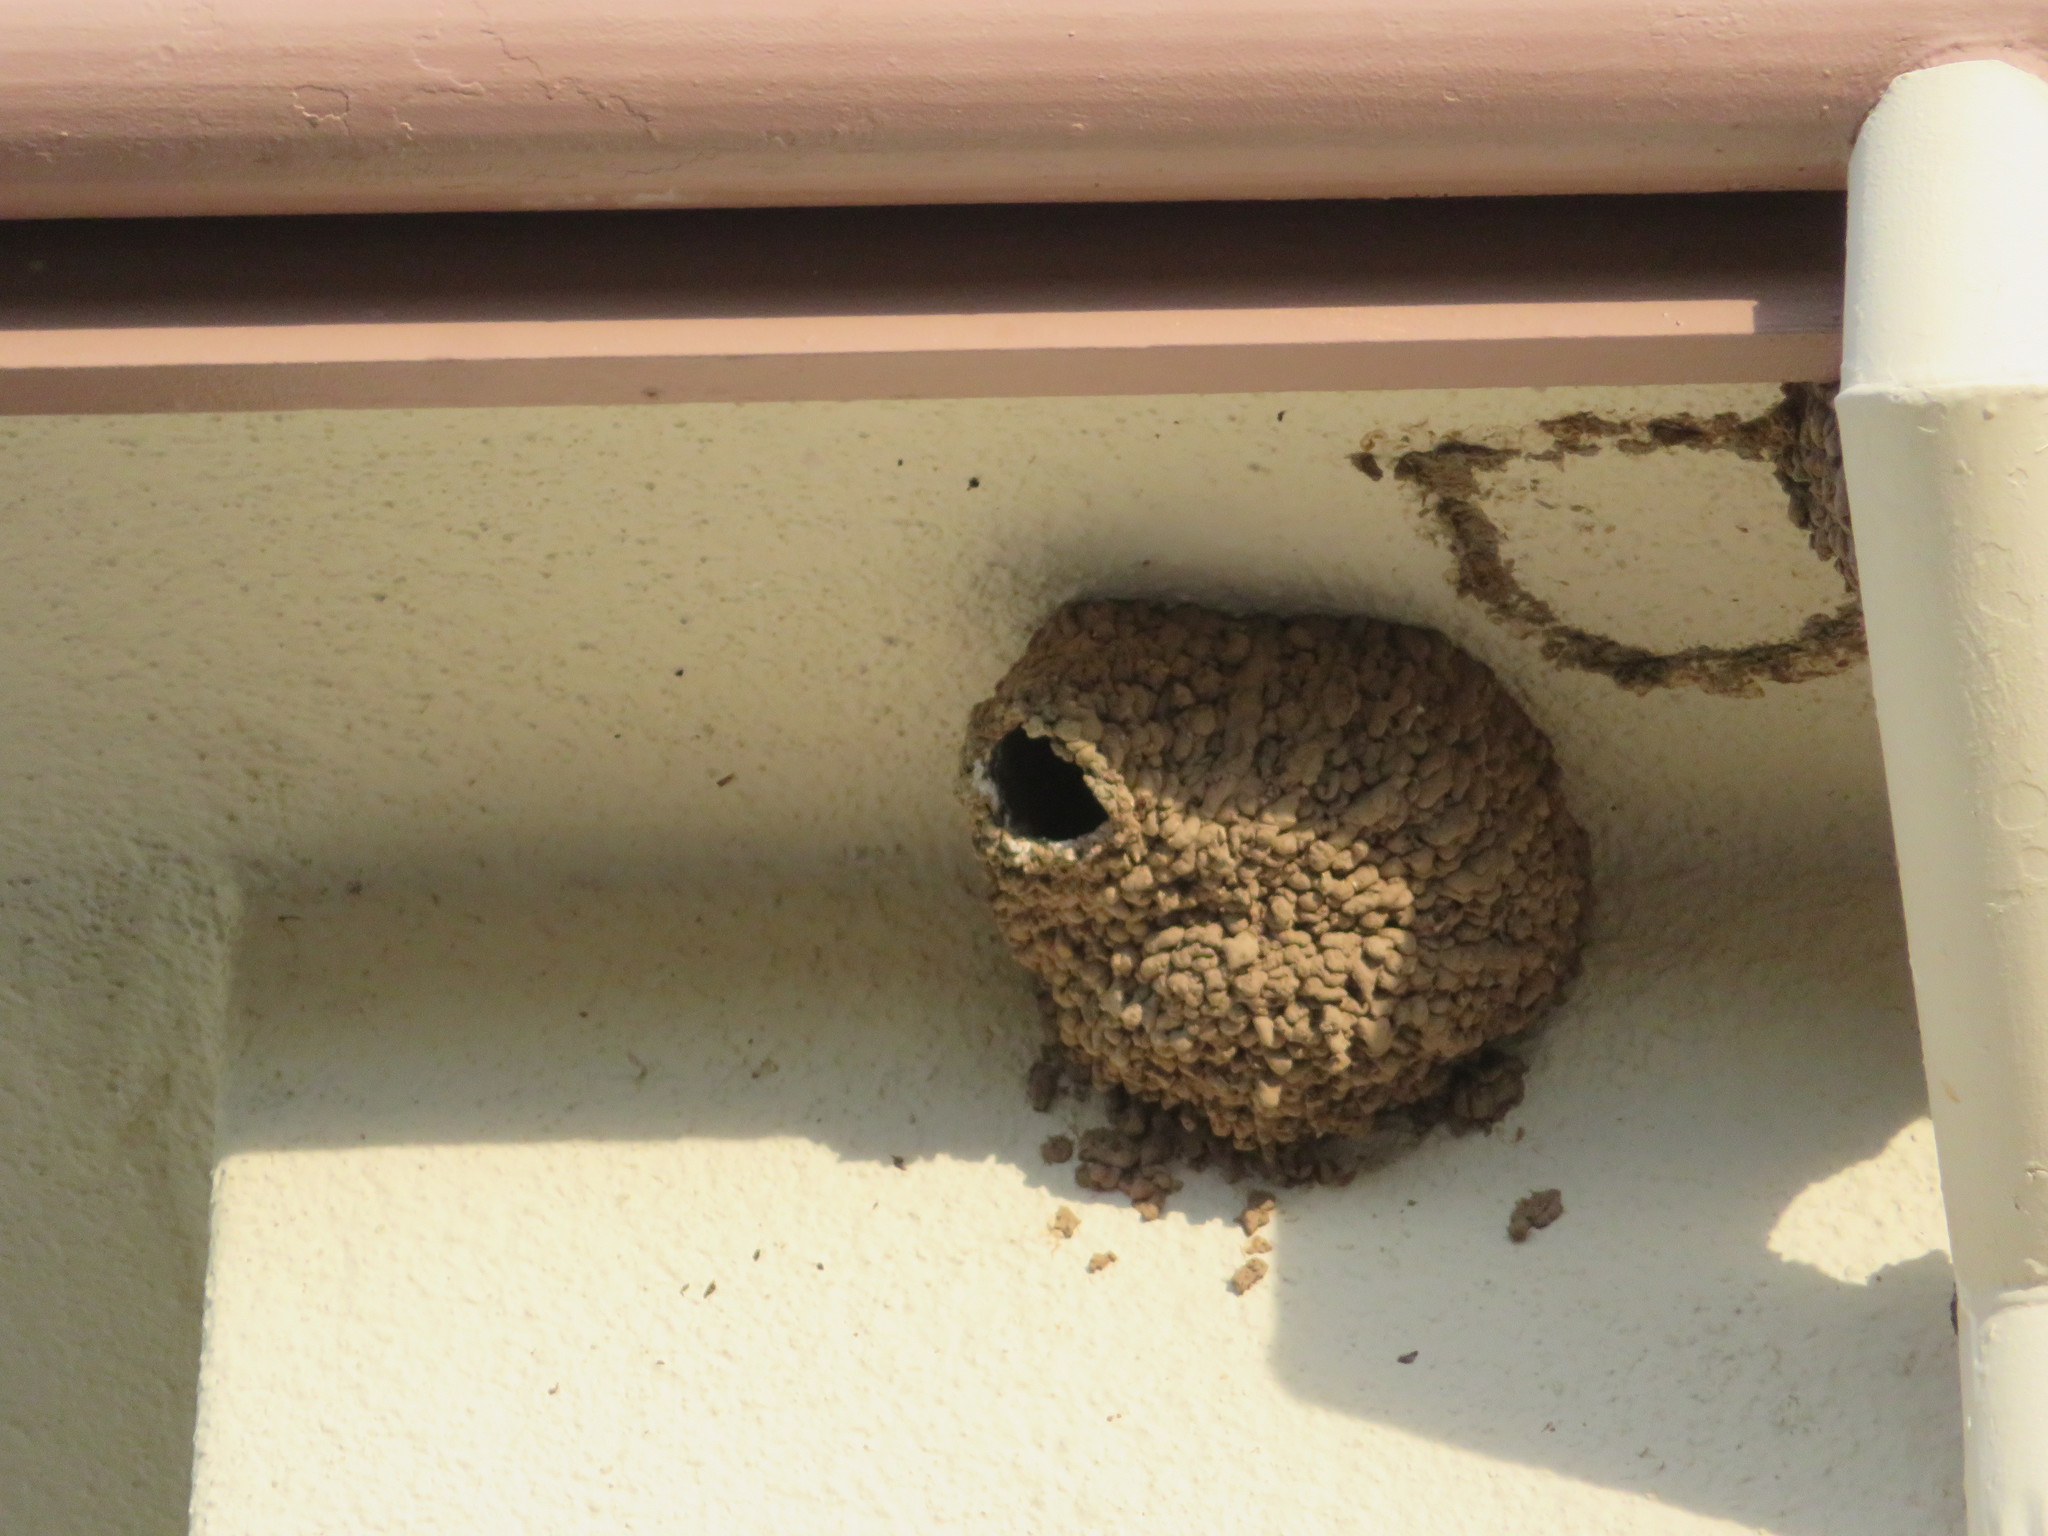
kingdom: Animalia
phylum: Chordata
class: Aves
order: Passeriformes
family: Hirundinidae
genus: Petrochelidon
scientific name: Petrochelidon pyrrhonota
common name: American cliff swallow
